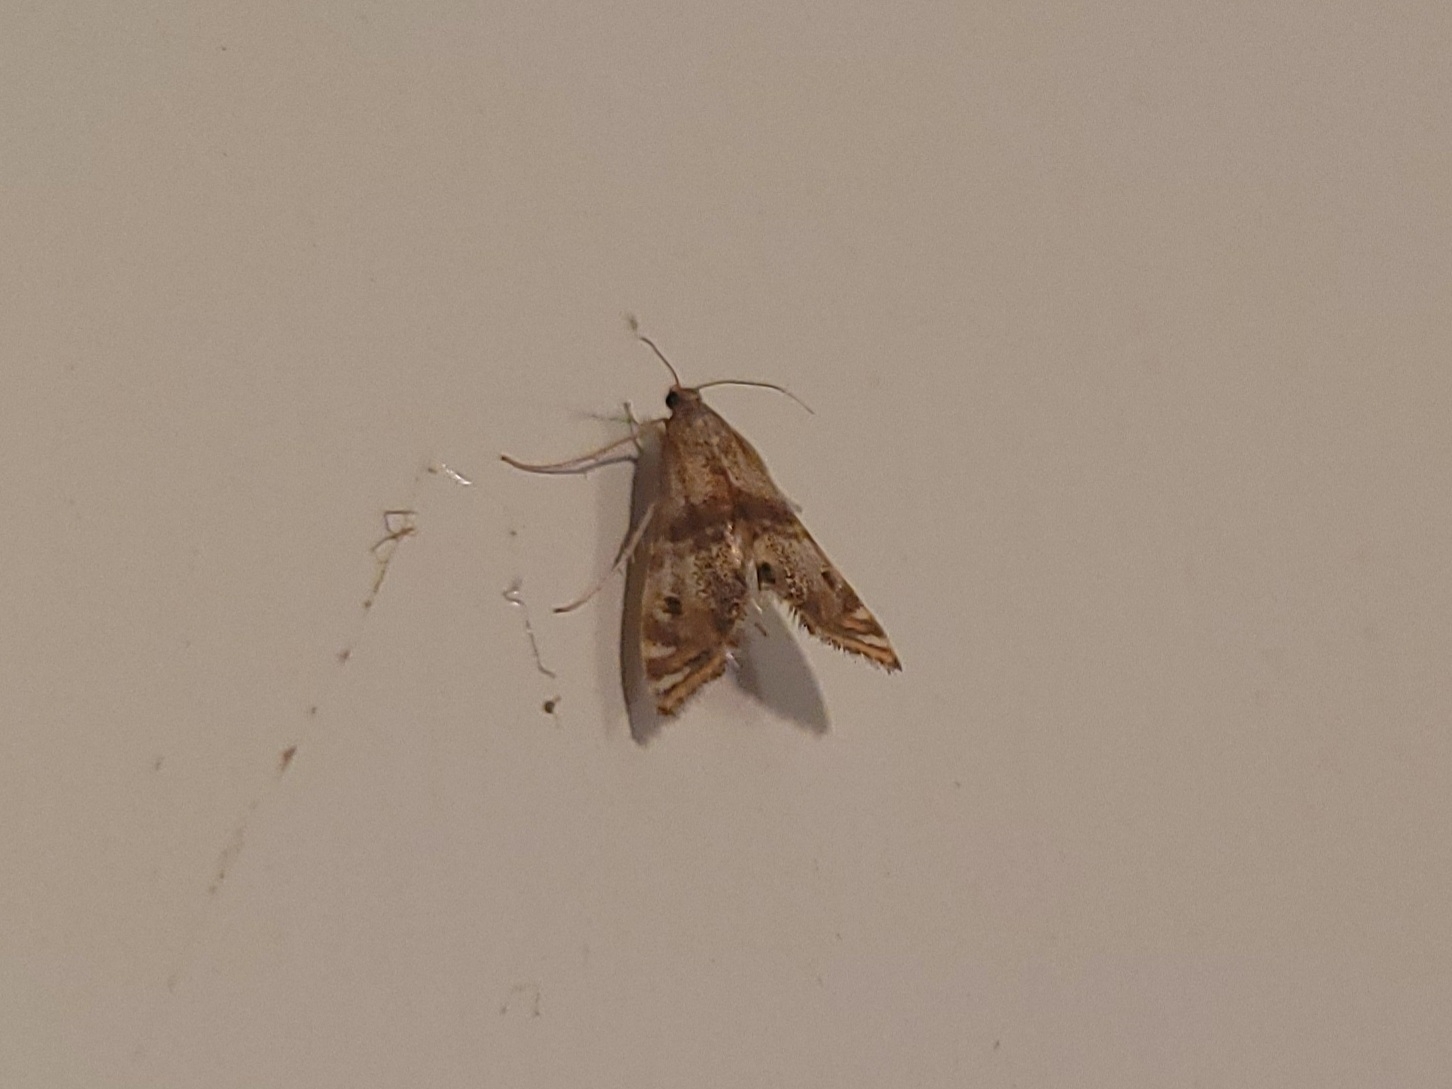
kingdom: Animalia
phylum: Arthropoda
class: Insecta
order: Lepidoptera
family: Crambidae
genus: Petrophila
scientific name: Petrophila bifascialis
